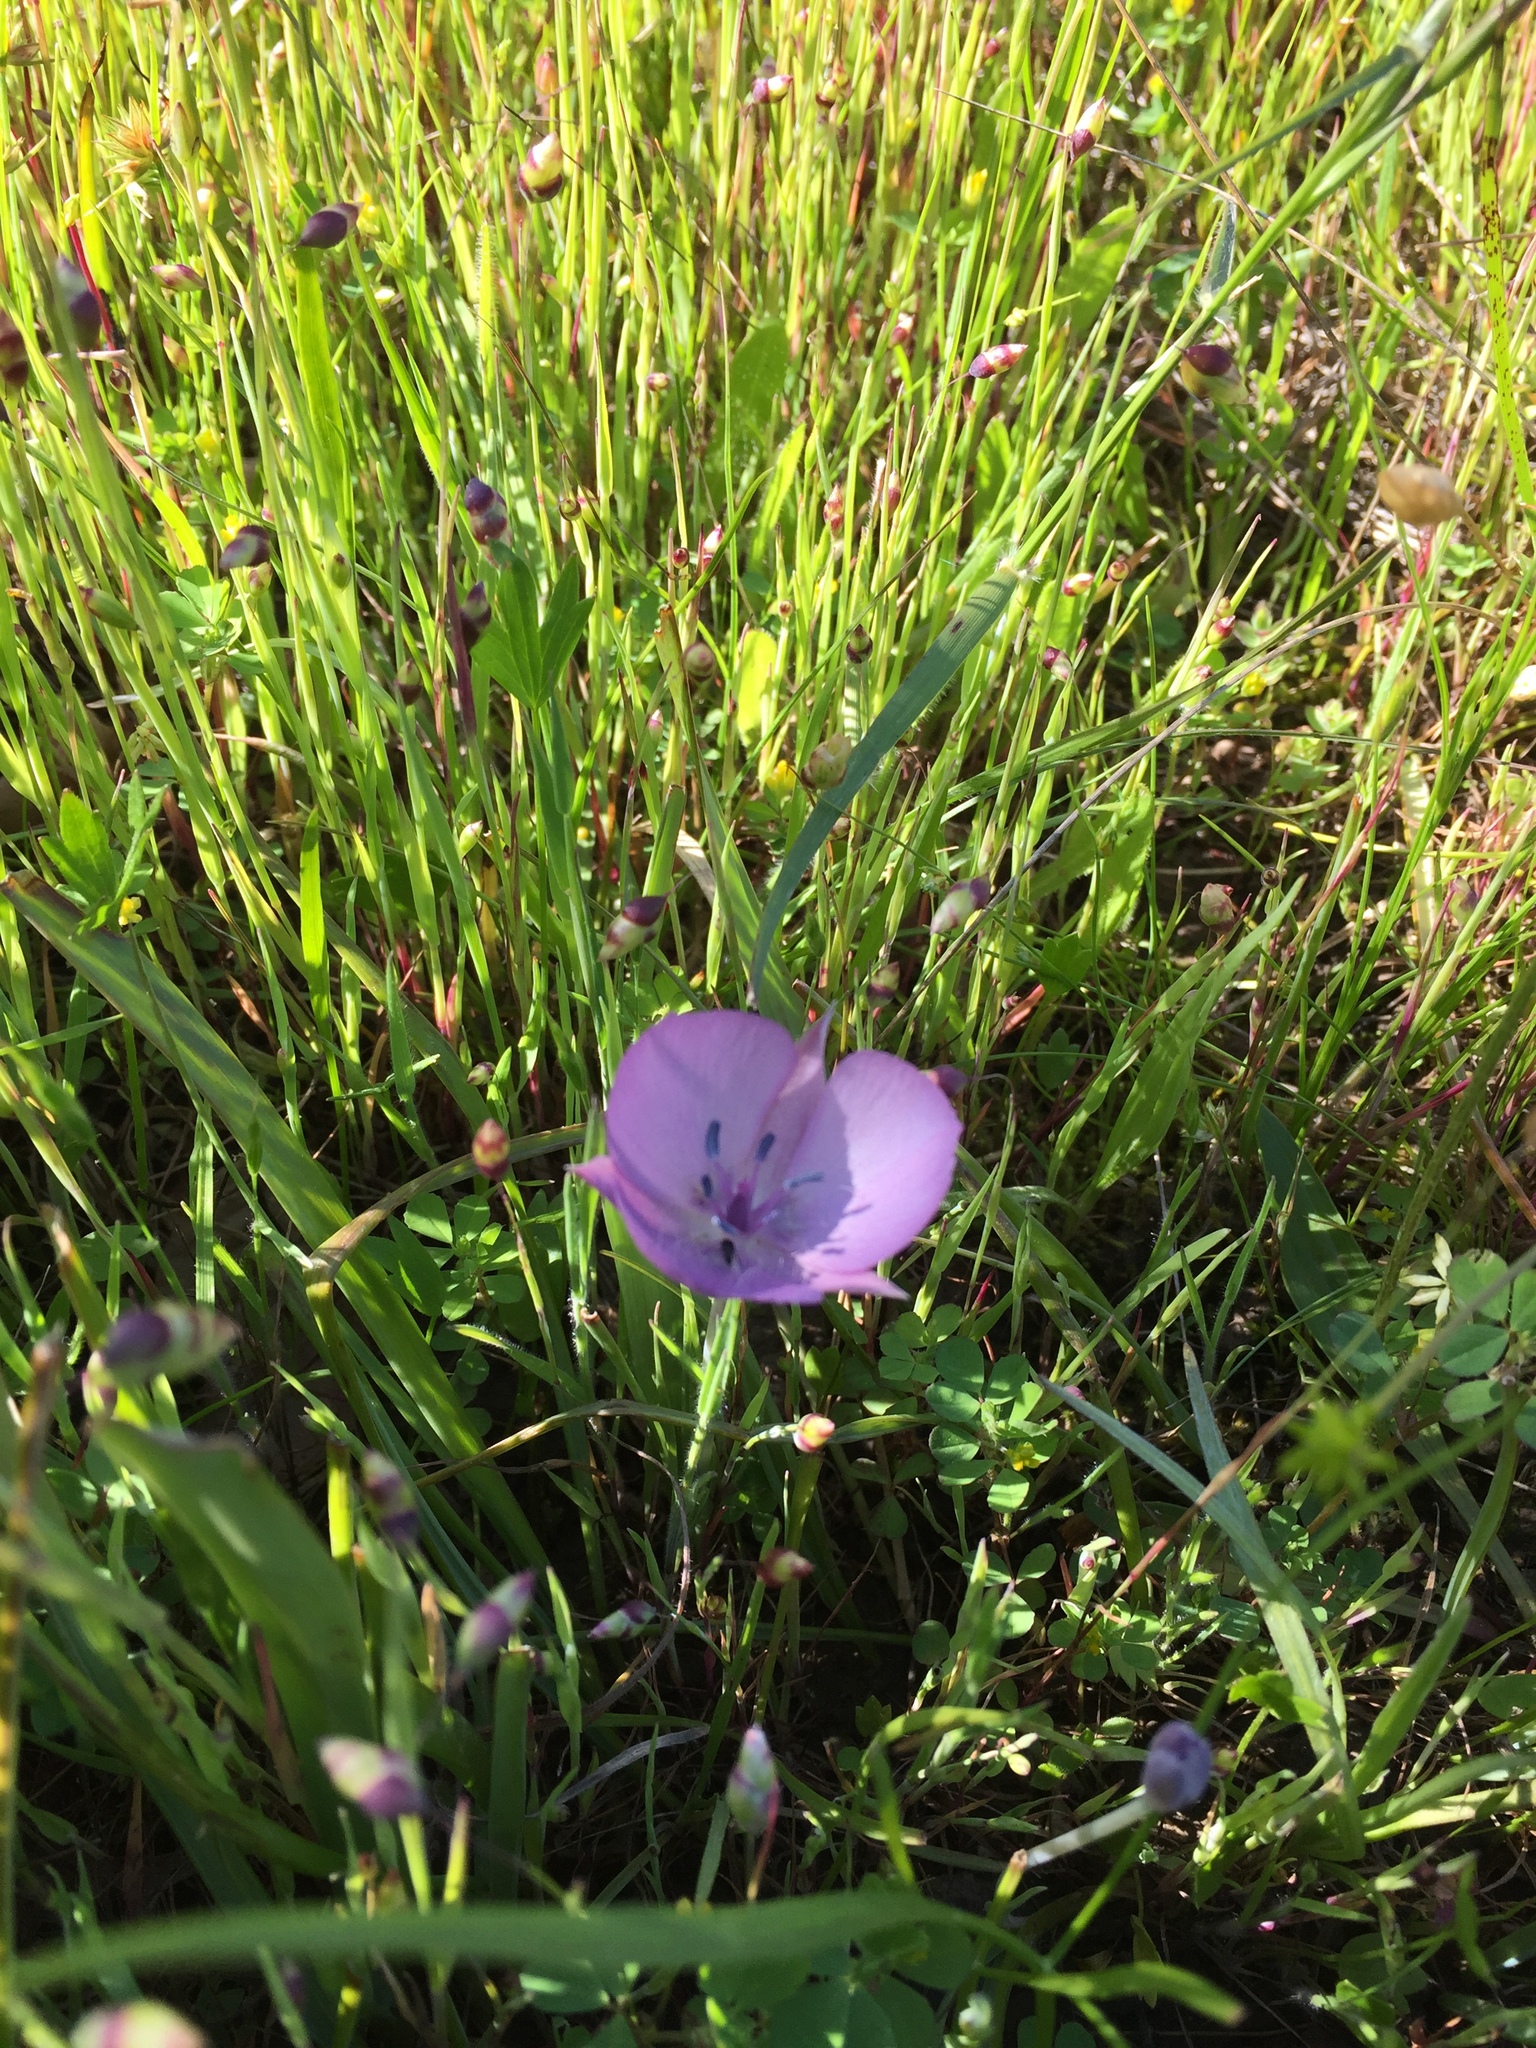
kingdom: Plantae
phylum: Tracheophyta
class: Liliopsida
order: Liliales
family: Liliaceae
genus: Calochortus
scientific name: Calochortus uniflorus
